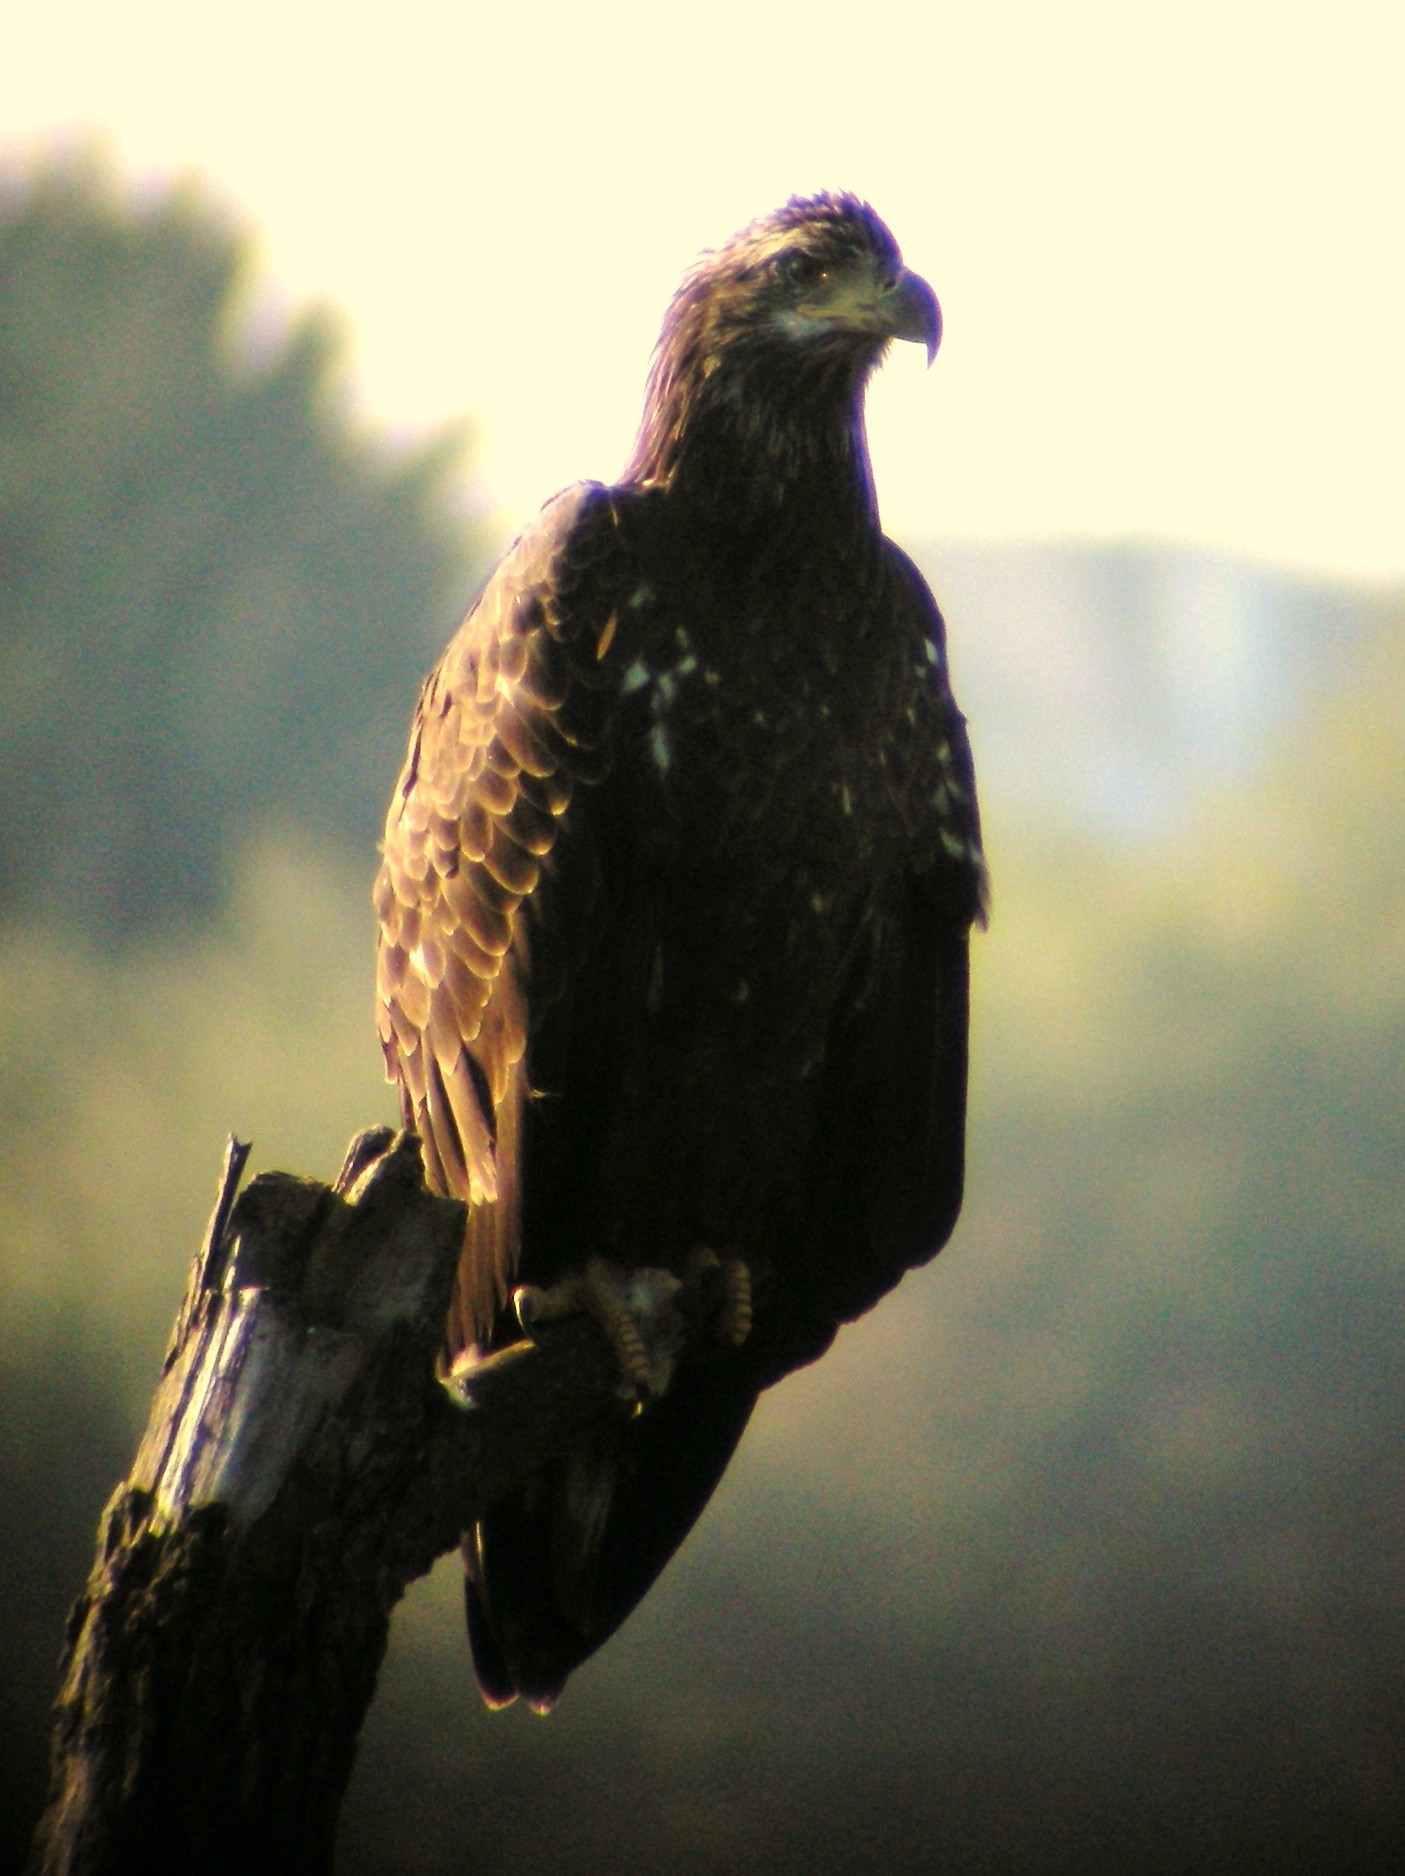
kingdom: Animalia
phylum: Chordata
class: Aves
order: Accipitriformes
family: Accipitridae
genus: Haliaeetus
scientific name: Haliaeetus leucocephalus
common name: Bald eagle
